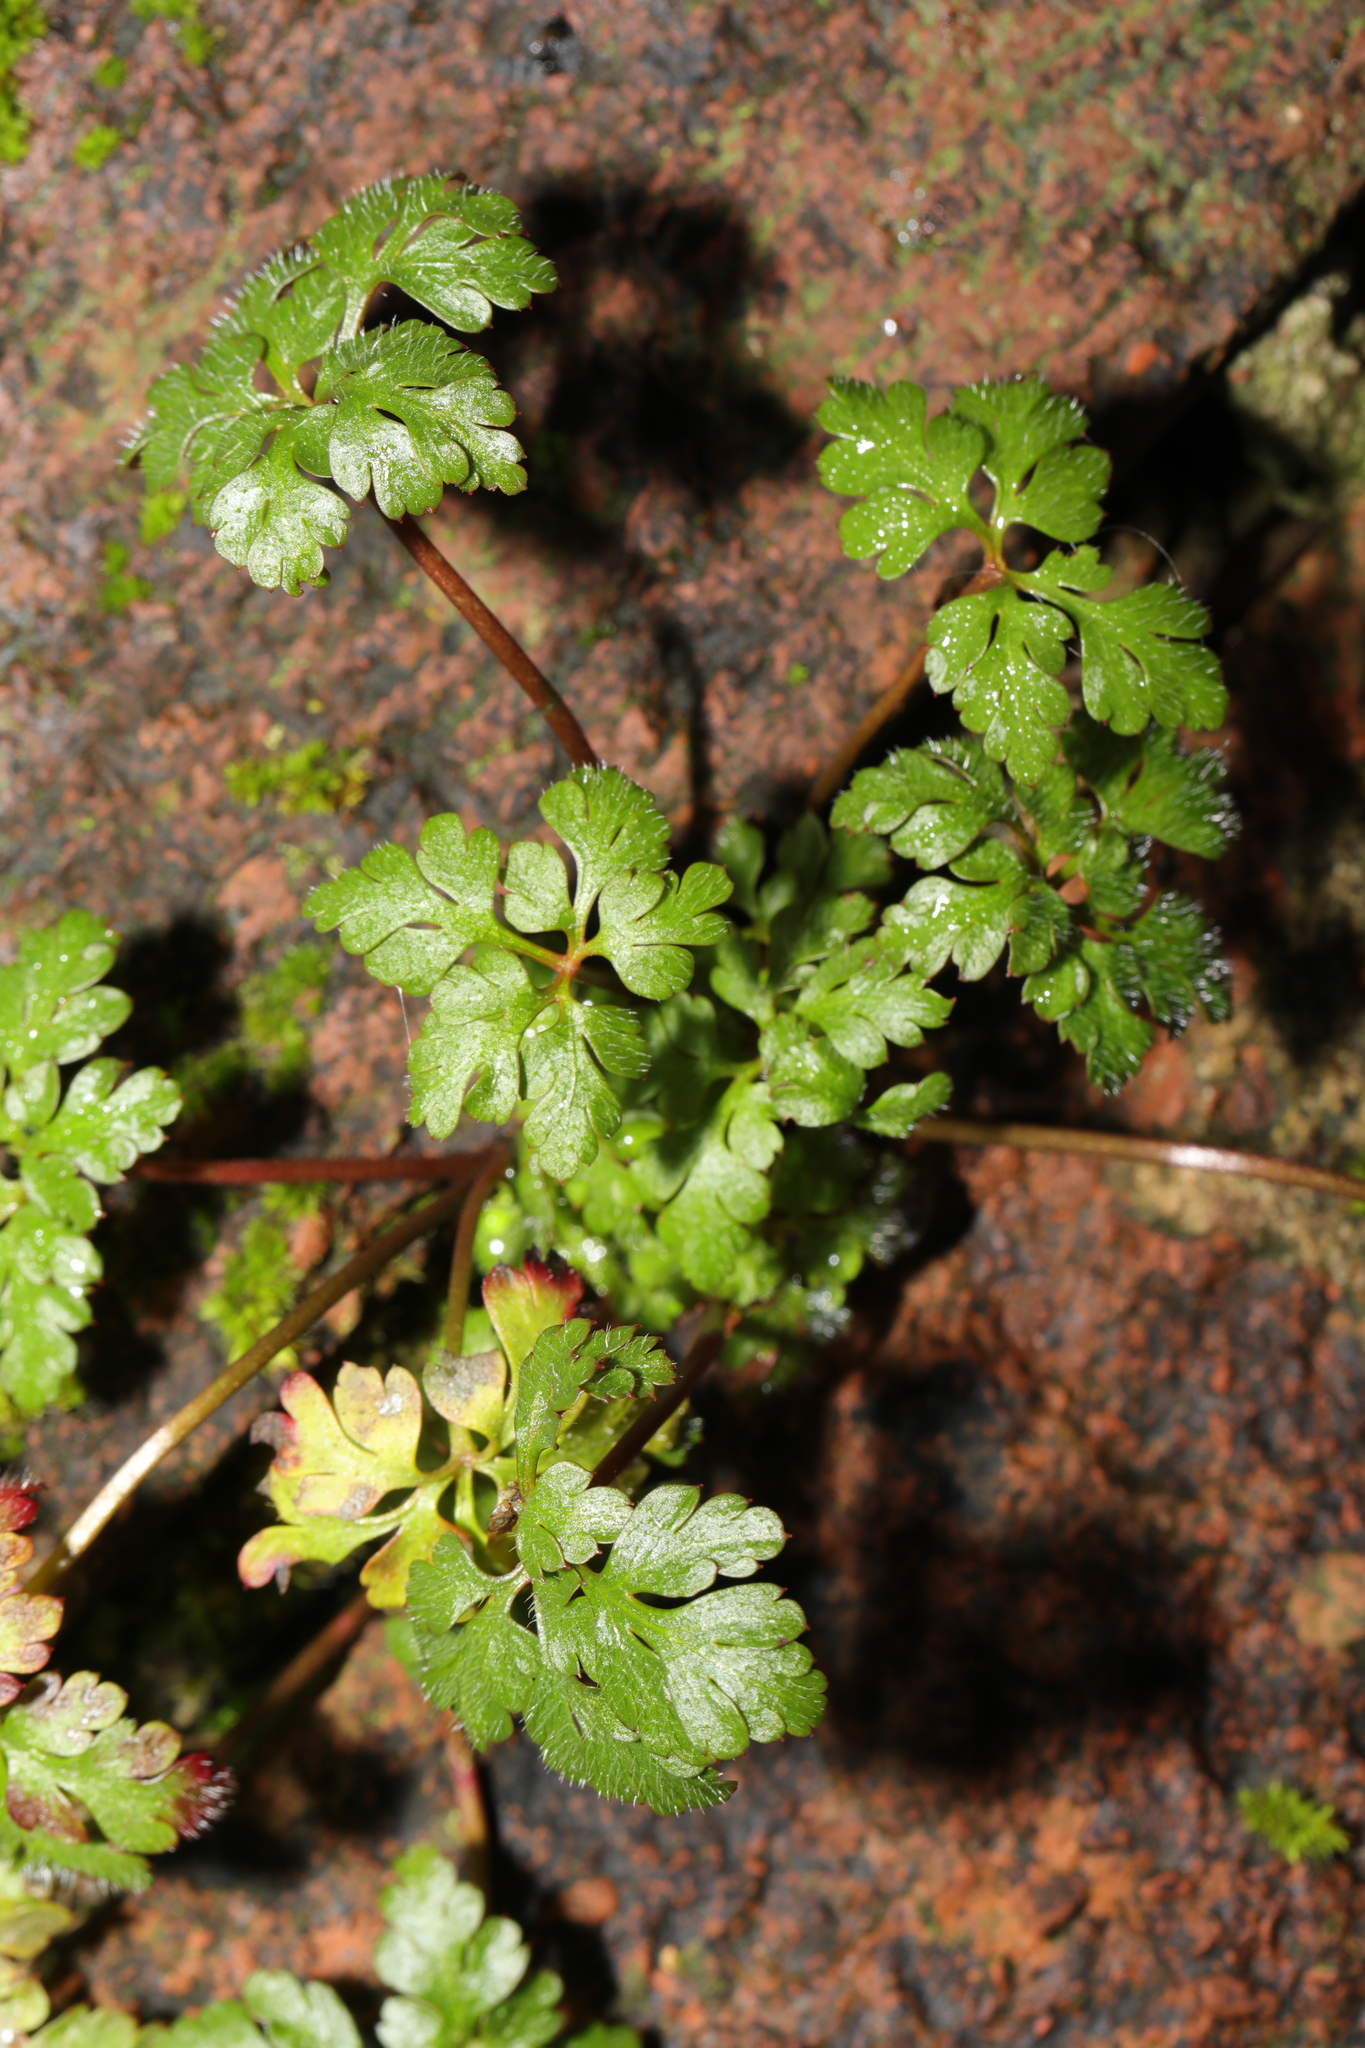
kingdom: Plantae
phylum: Tracheophyta
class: Magnoliopsida
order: Geraniales
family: Geraniaceae
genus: Geranium
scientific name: Geranium robertianum
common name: Herb-robert
